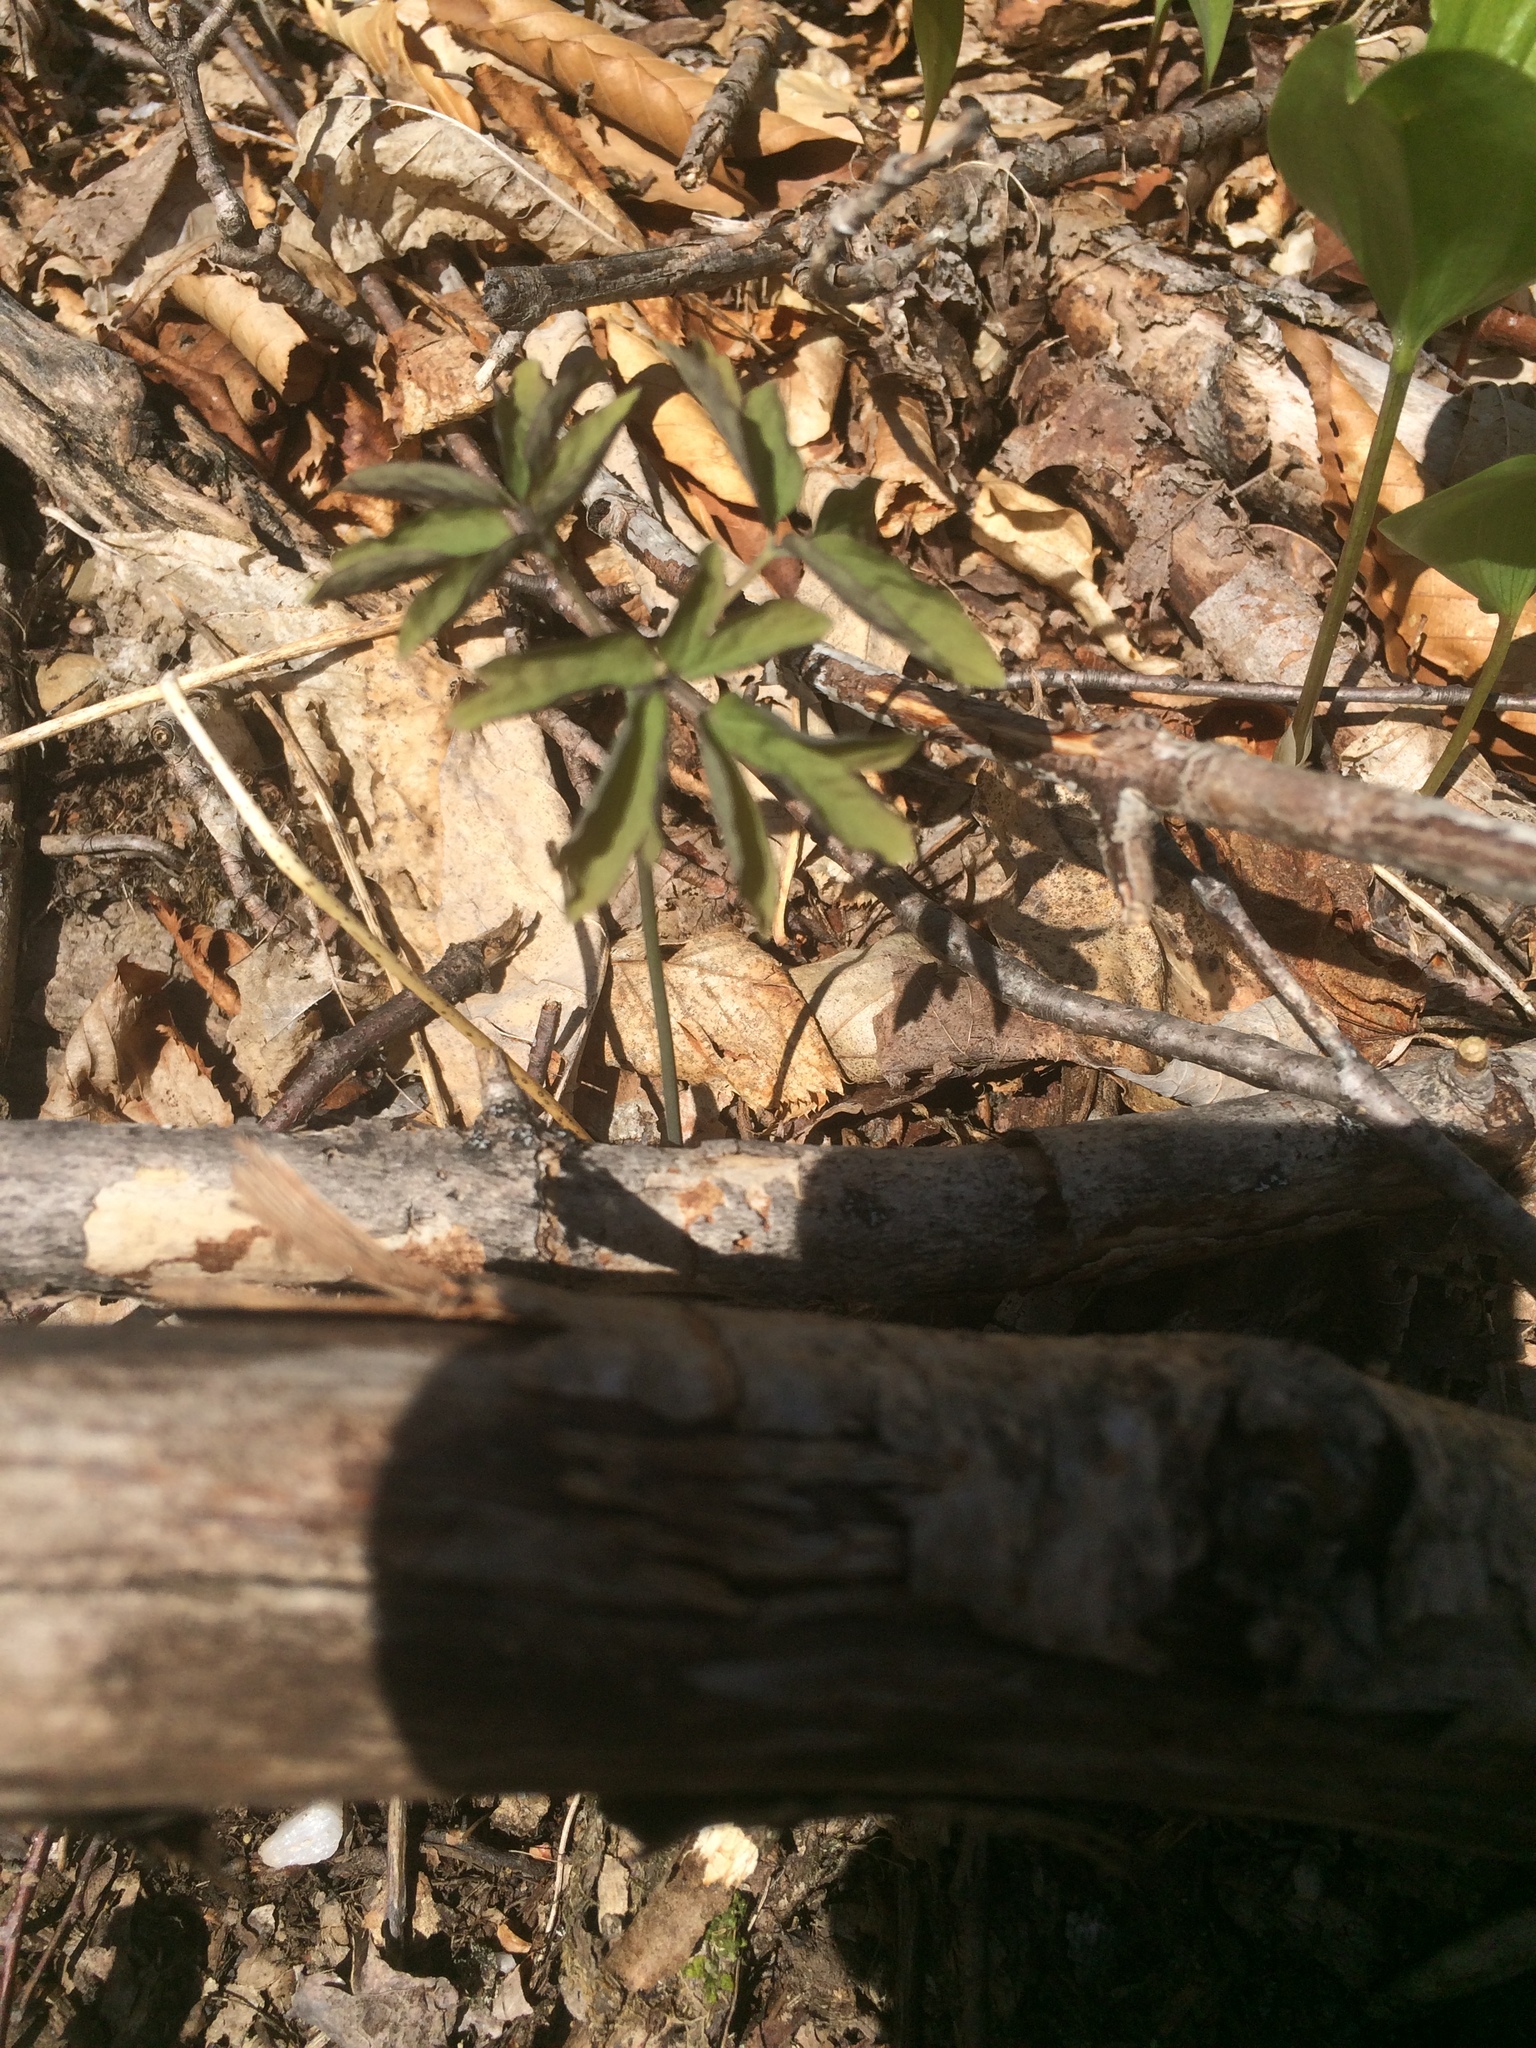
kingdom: Plantae
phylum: Tracheophyta
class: Magnoliopsida
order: Ranunculales
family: Berberidaceae
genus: Caulophyllum
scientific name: Caulophyllum
